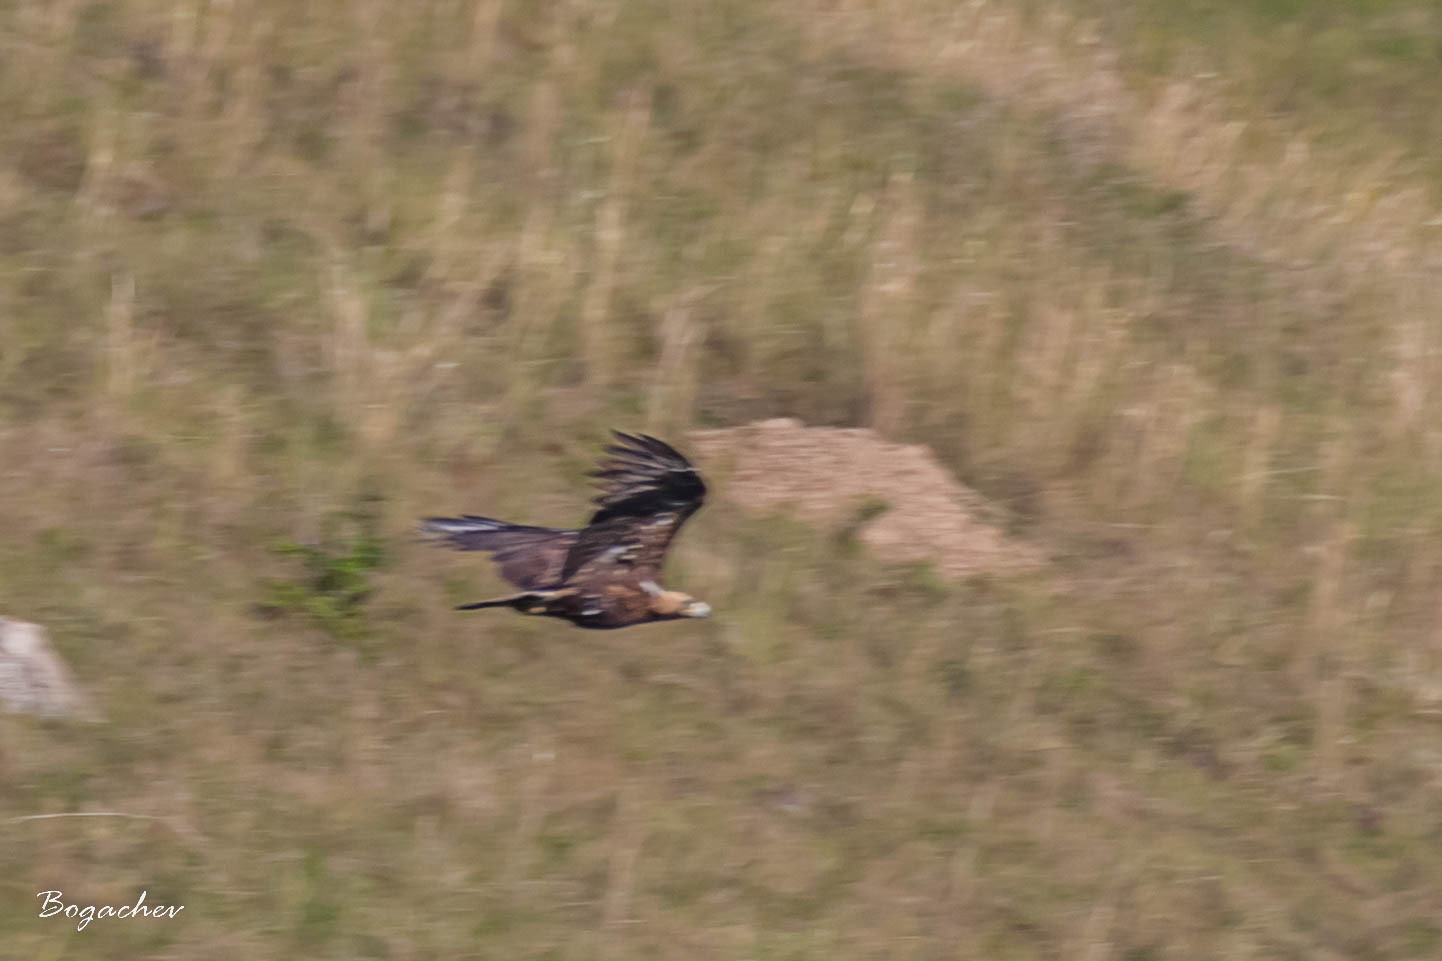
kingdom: Animalia
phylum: Chordata
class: Aves
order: Accipitriformes
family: Accipitridae
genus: Aquila
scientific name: Aquila heliaca
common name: Eastern imperial eagle
